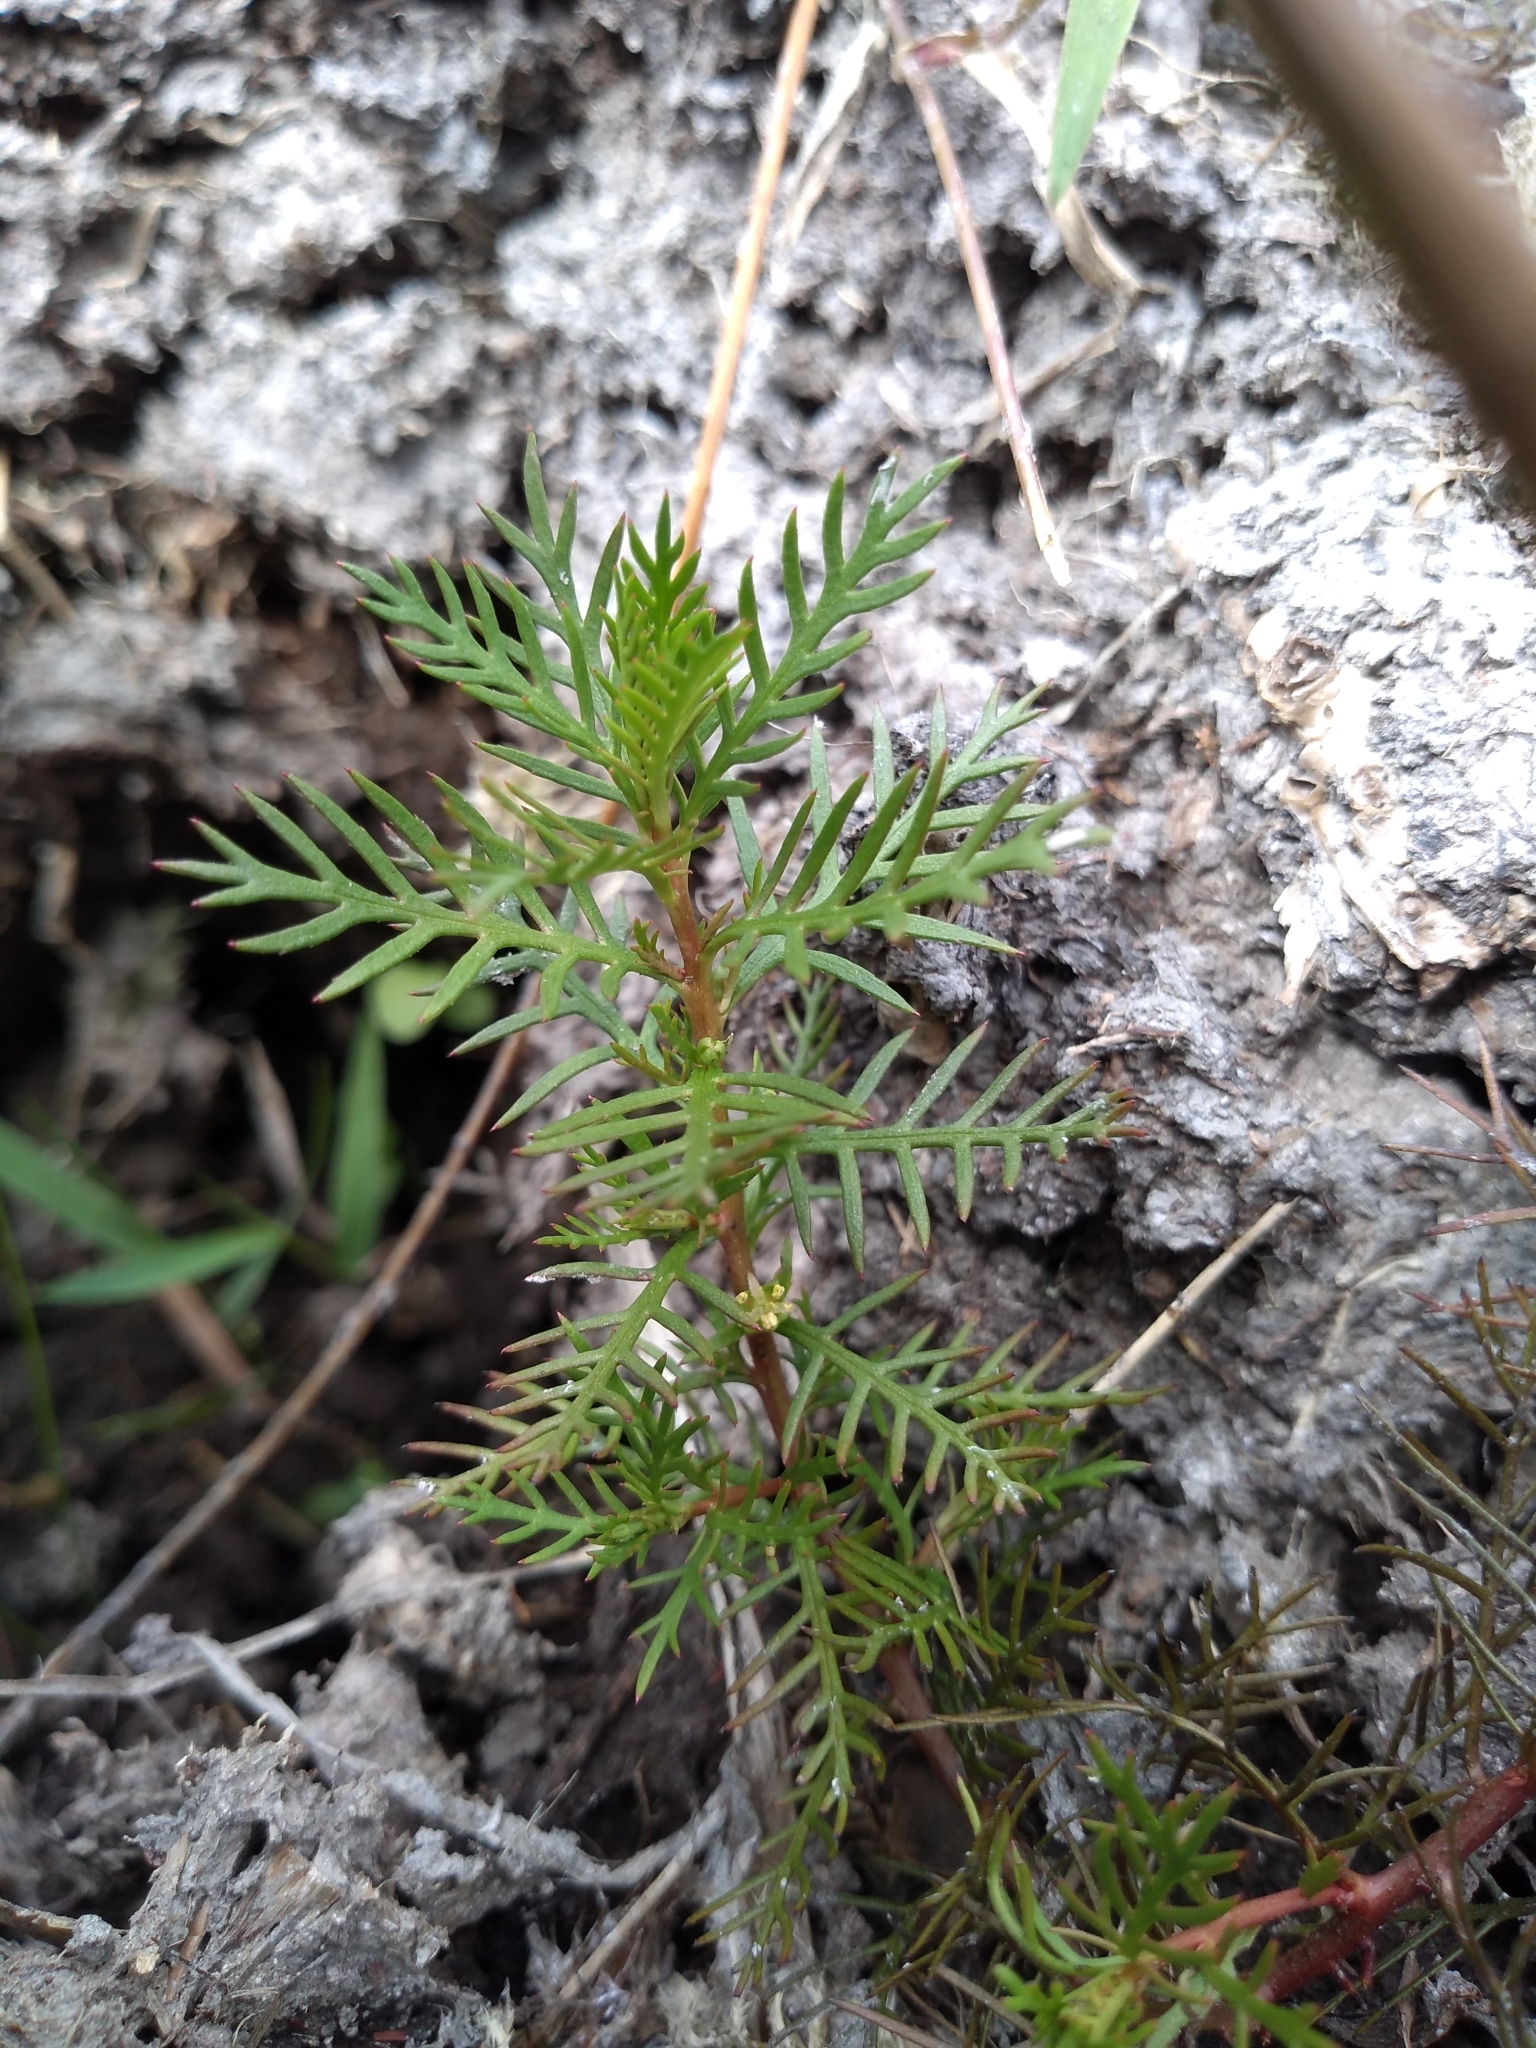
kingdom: Plantae
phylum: Tracheophyta
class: Magnoliopsida
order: Saxifragales
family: Haloragaceae
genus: Proserpinaca
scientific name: Proserpinaca pectinata
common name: Comb-leaved mermaidweed
